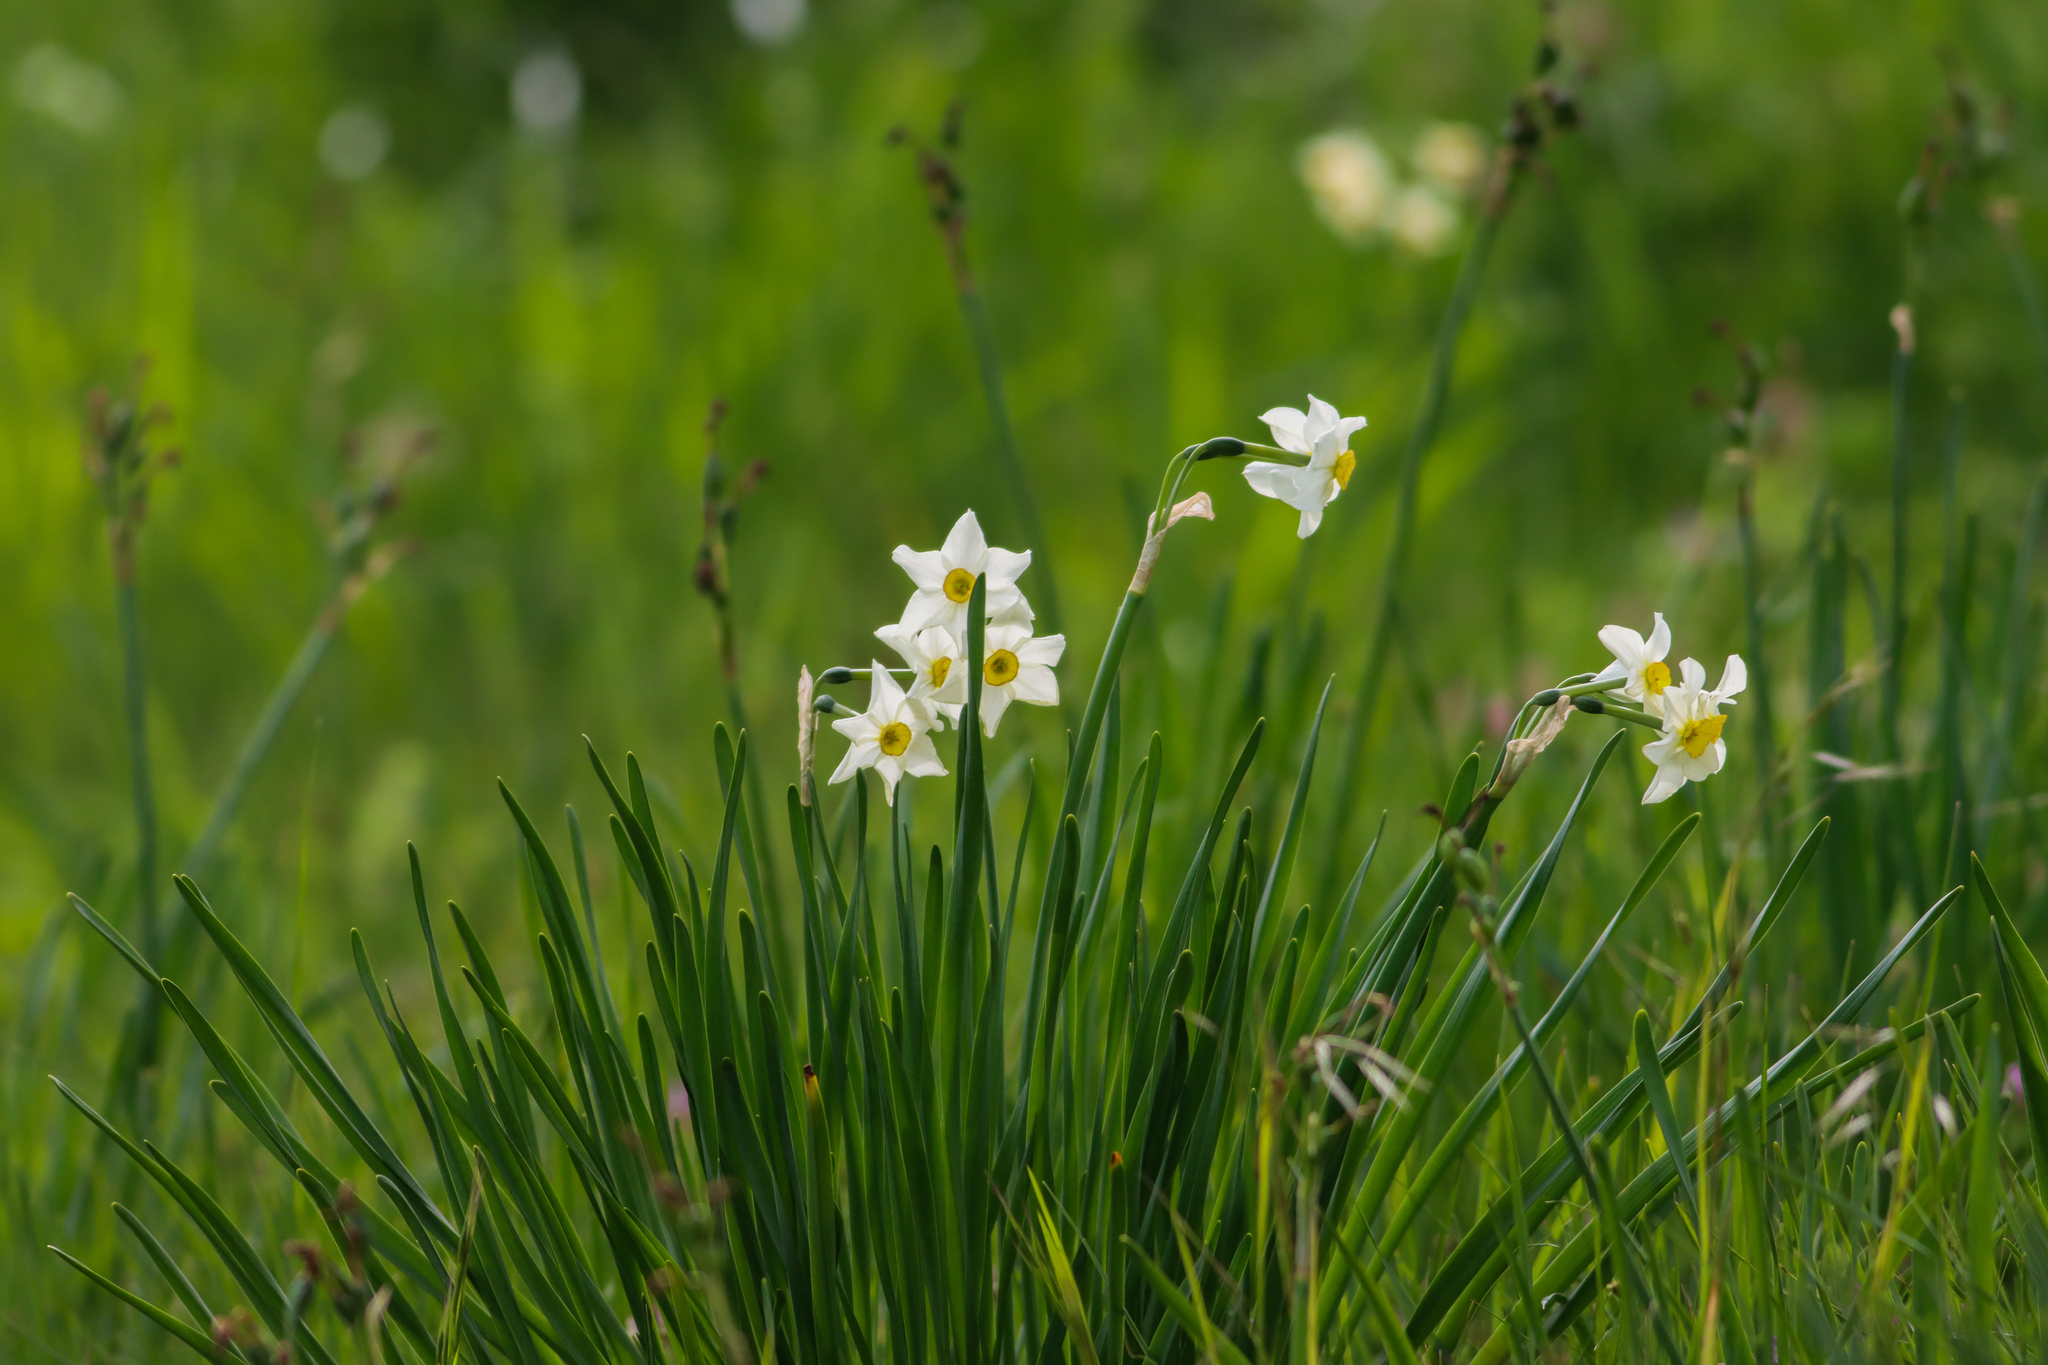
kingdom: Plantae
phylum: Tracheophyta
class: Liliopsida
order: Asparagales
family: Amaryllidaceae
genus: Narcissus
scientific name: Narcissus tazetta
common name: Bunch-flowered daffodil
